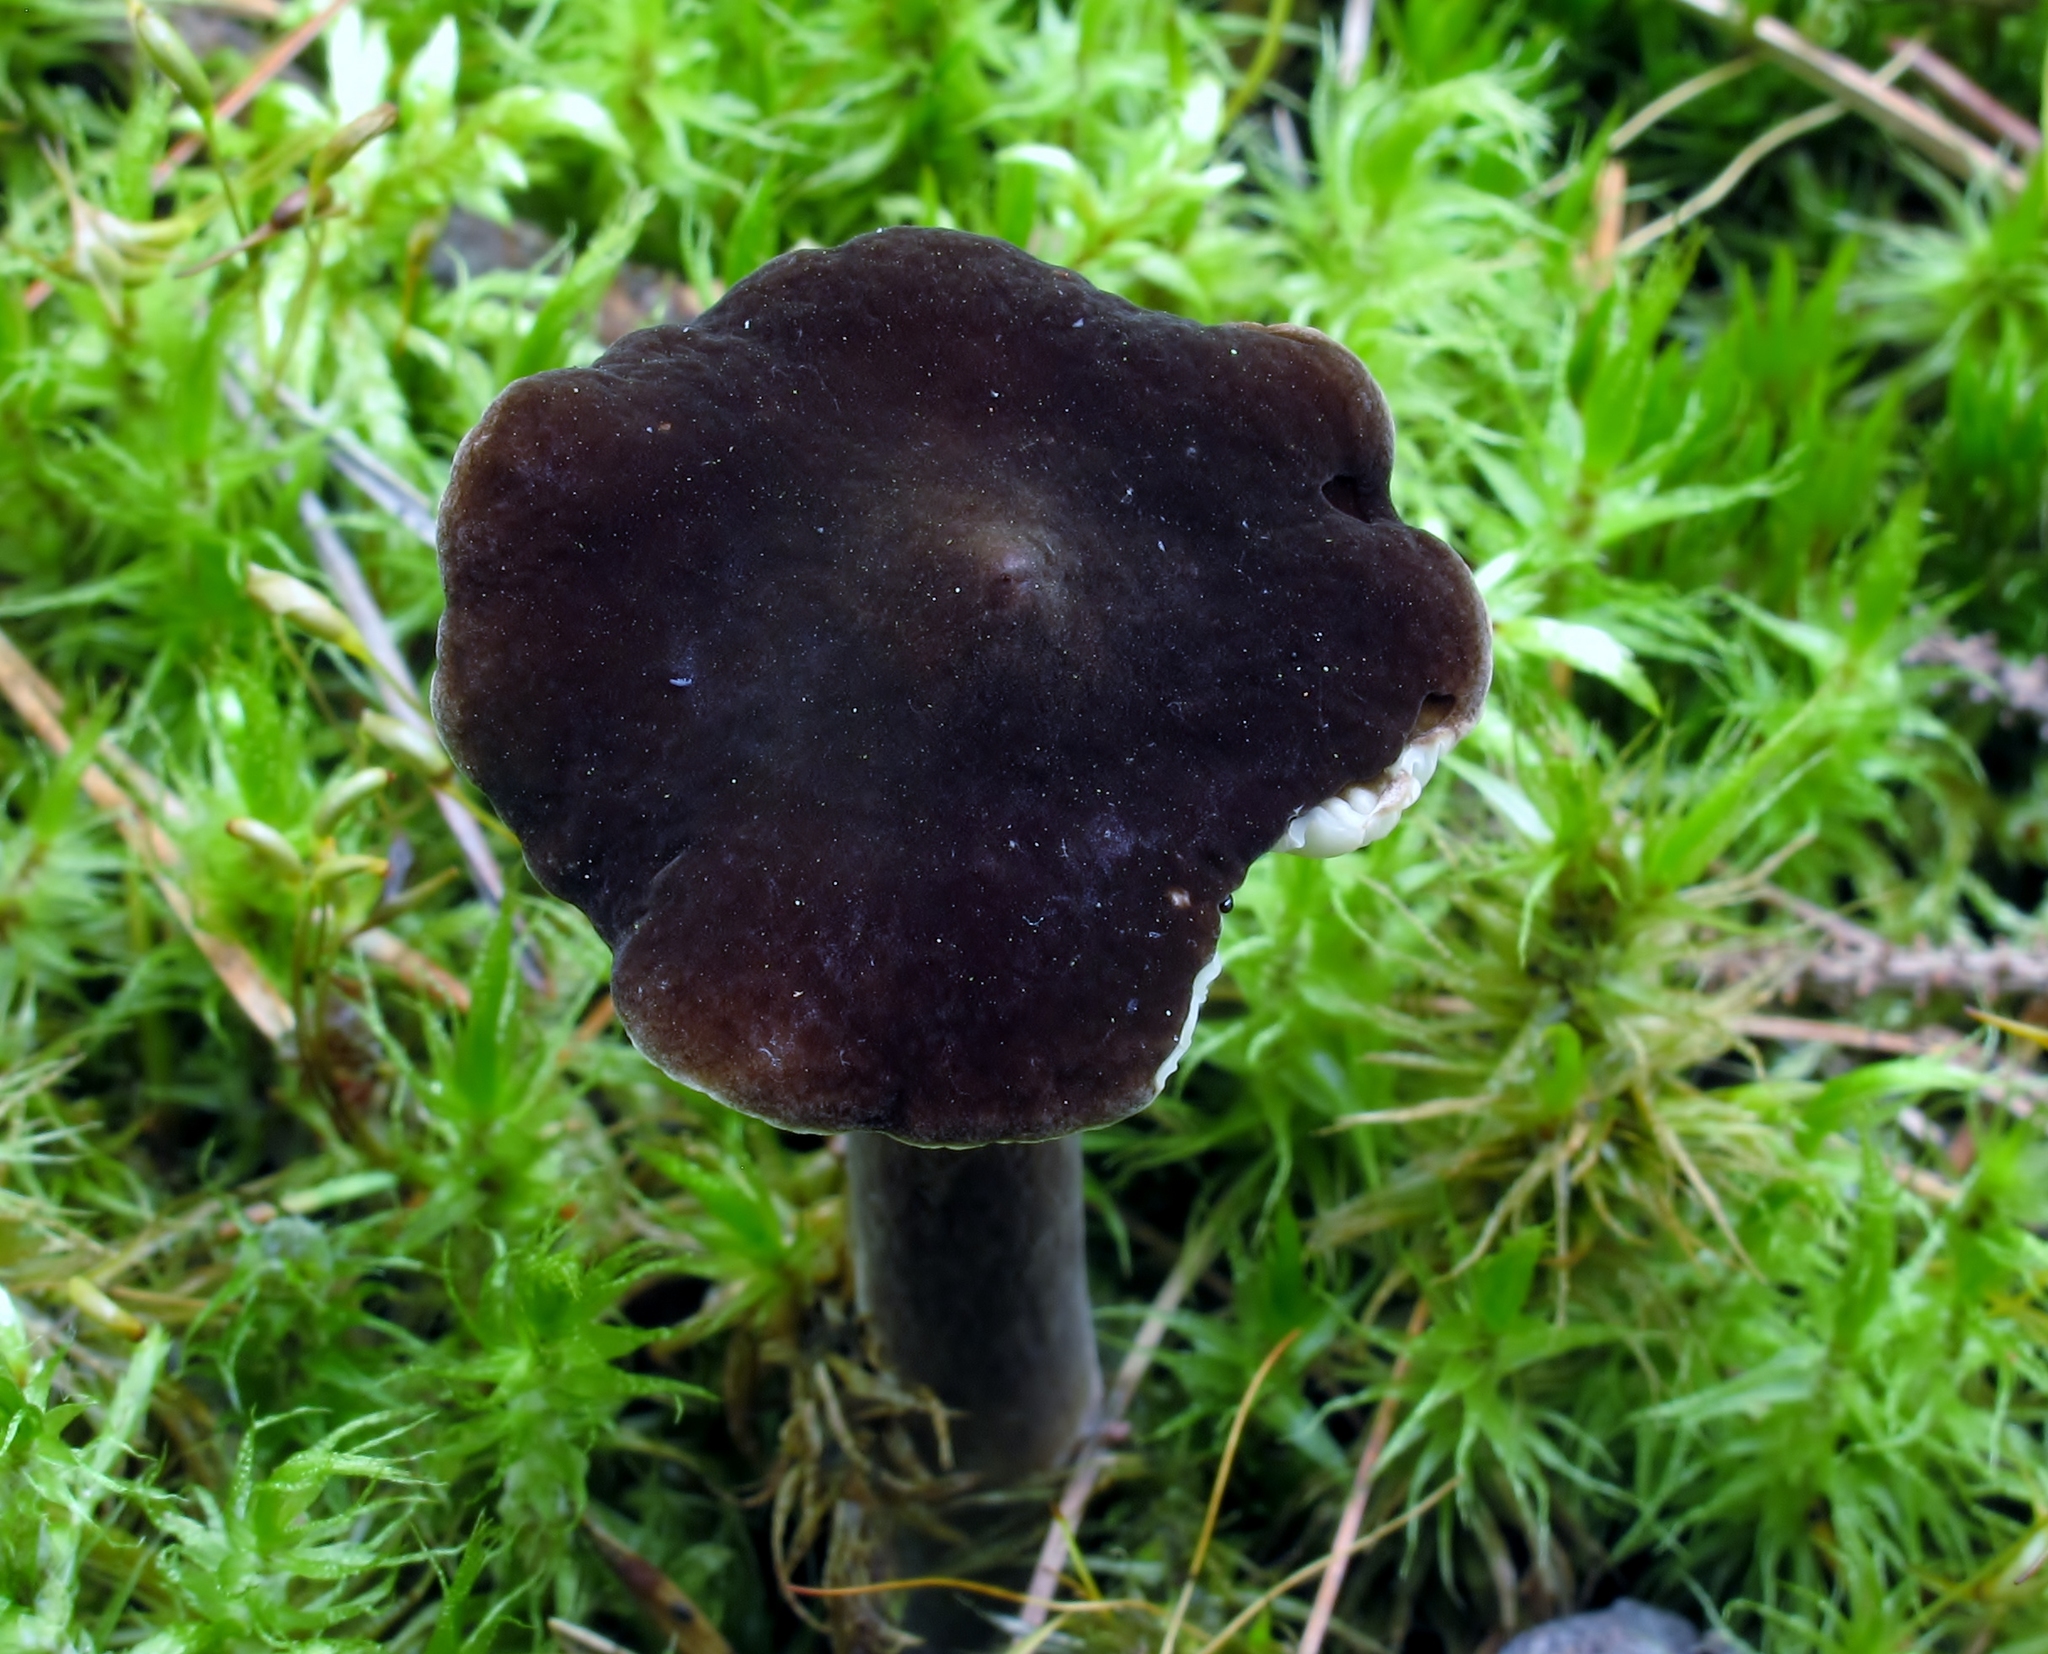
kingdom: Fungi
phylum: Basidiomycota
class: Agaricomycetes
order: Russulales
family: Russulaceae
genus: Lactarius
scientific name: Lactarius lignyotus
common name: Velvet milkcap
